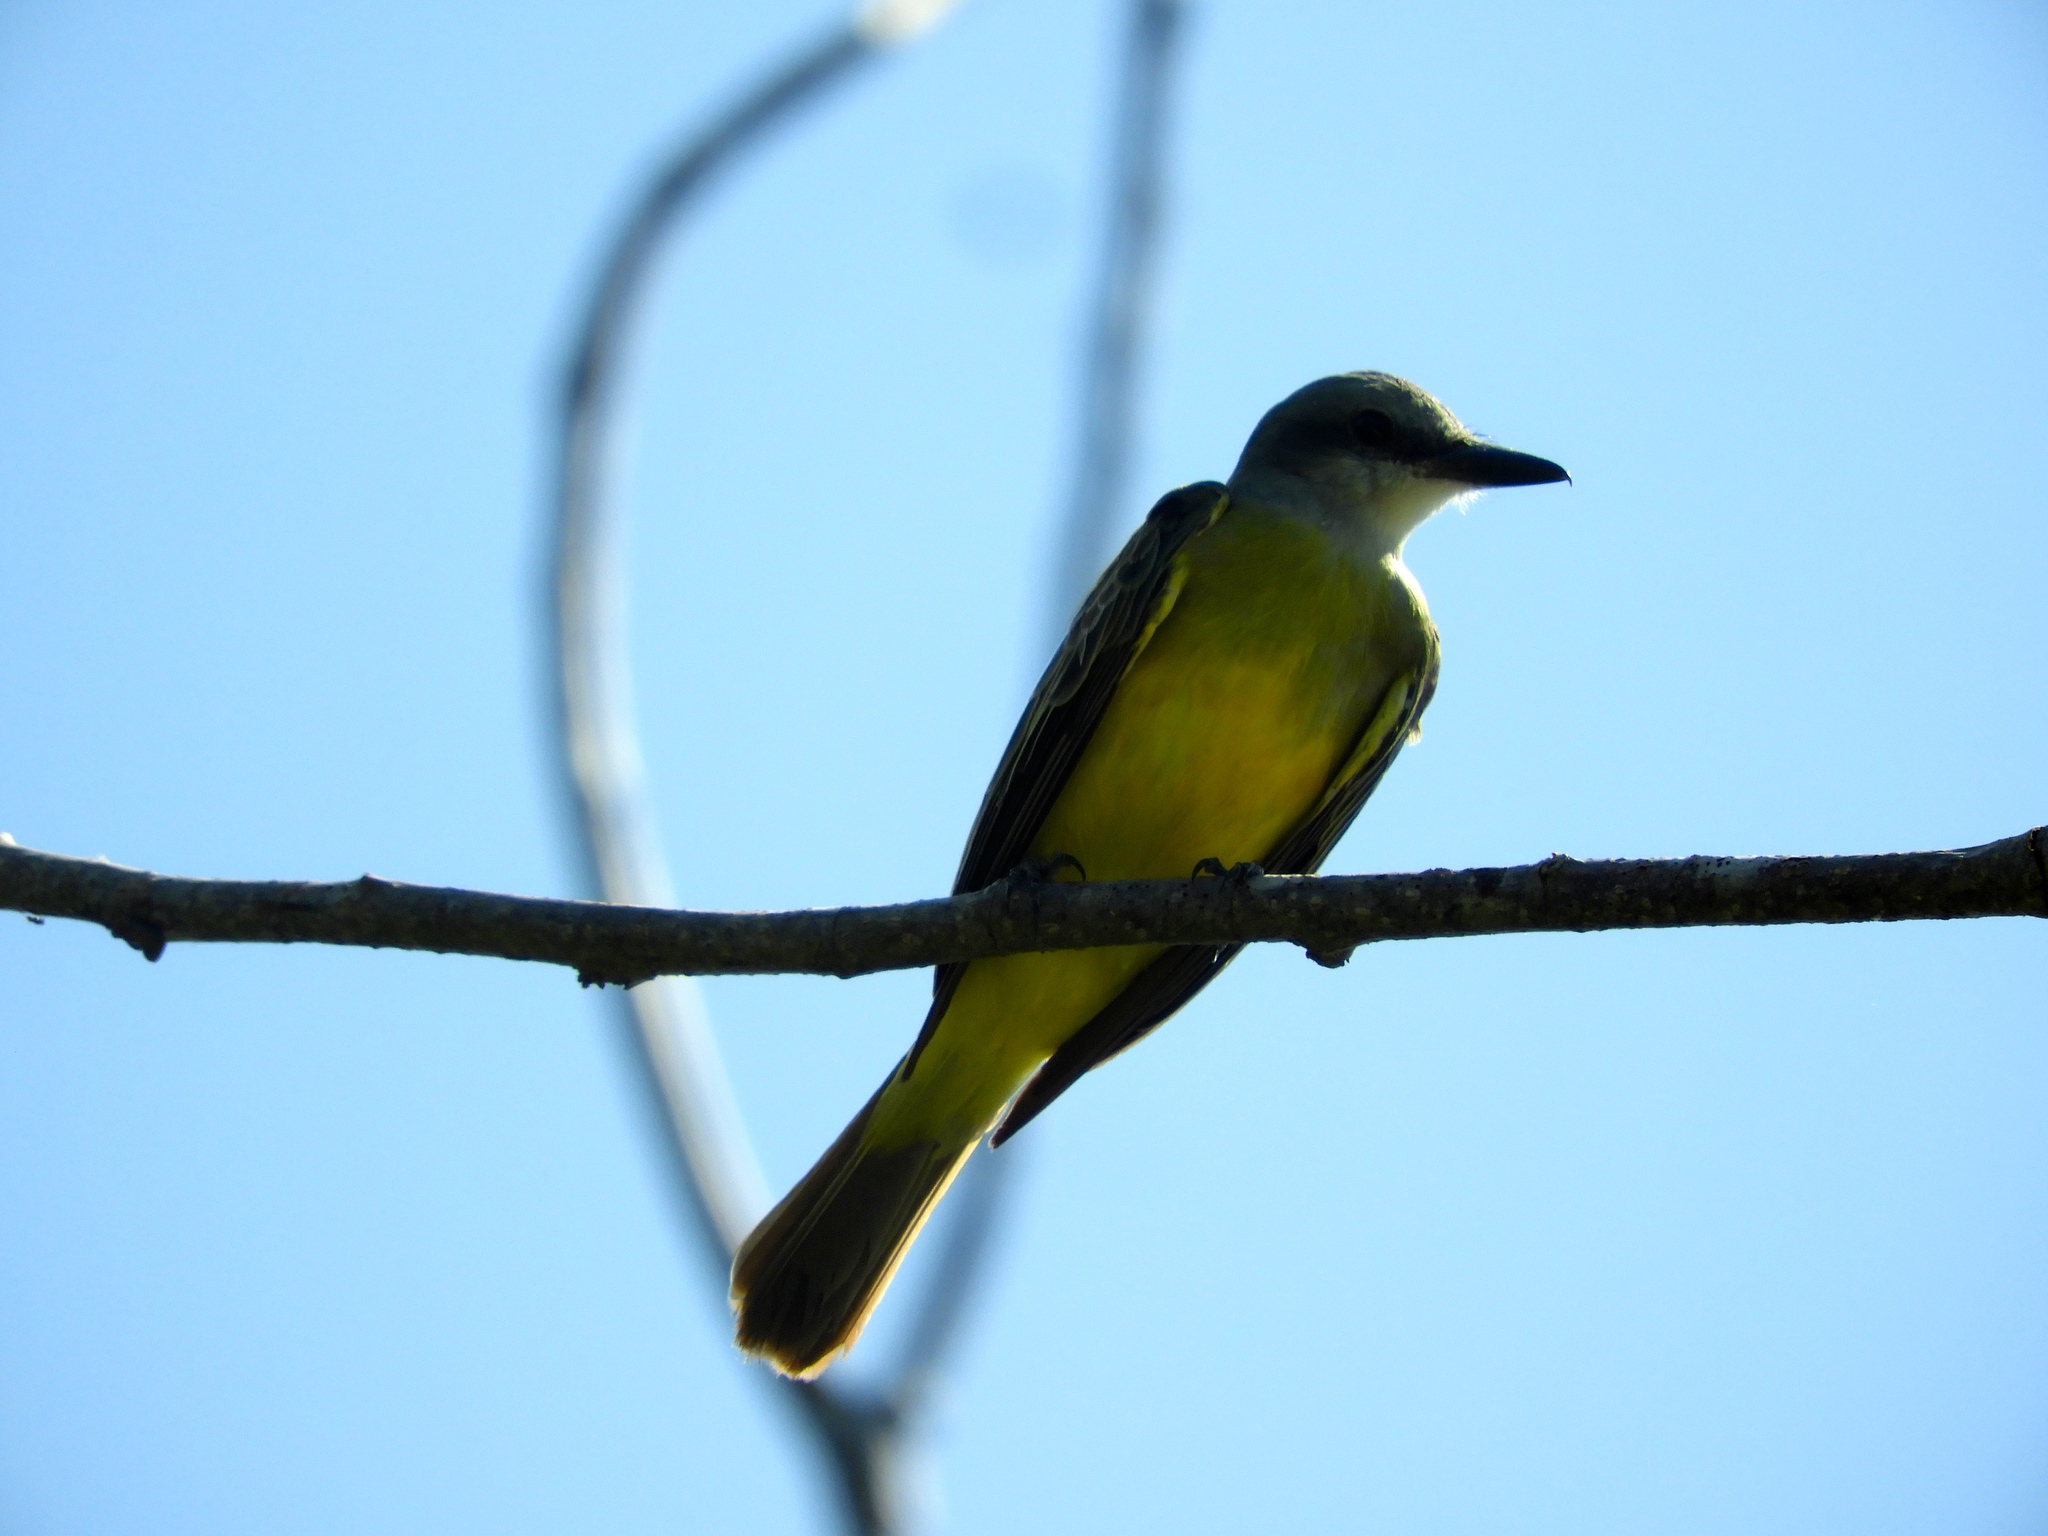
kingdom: Animalia
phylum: Chordata
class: Aves
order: Passeriformes
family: Tyrannidae
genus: Tyrannus
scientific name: Tyrannus melancholicus
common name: Tropical kingbird
